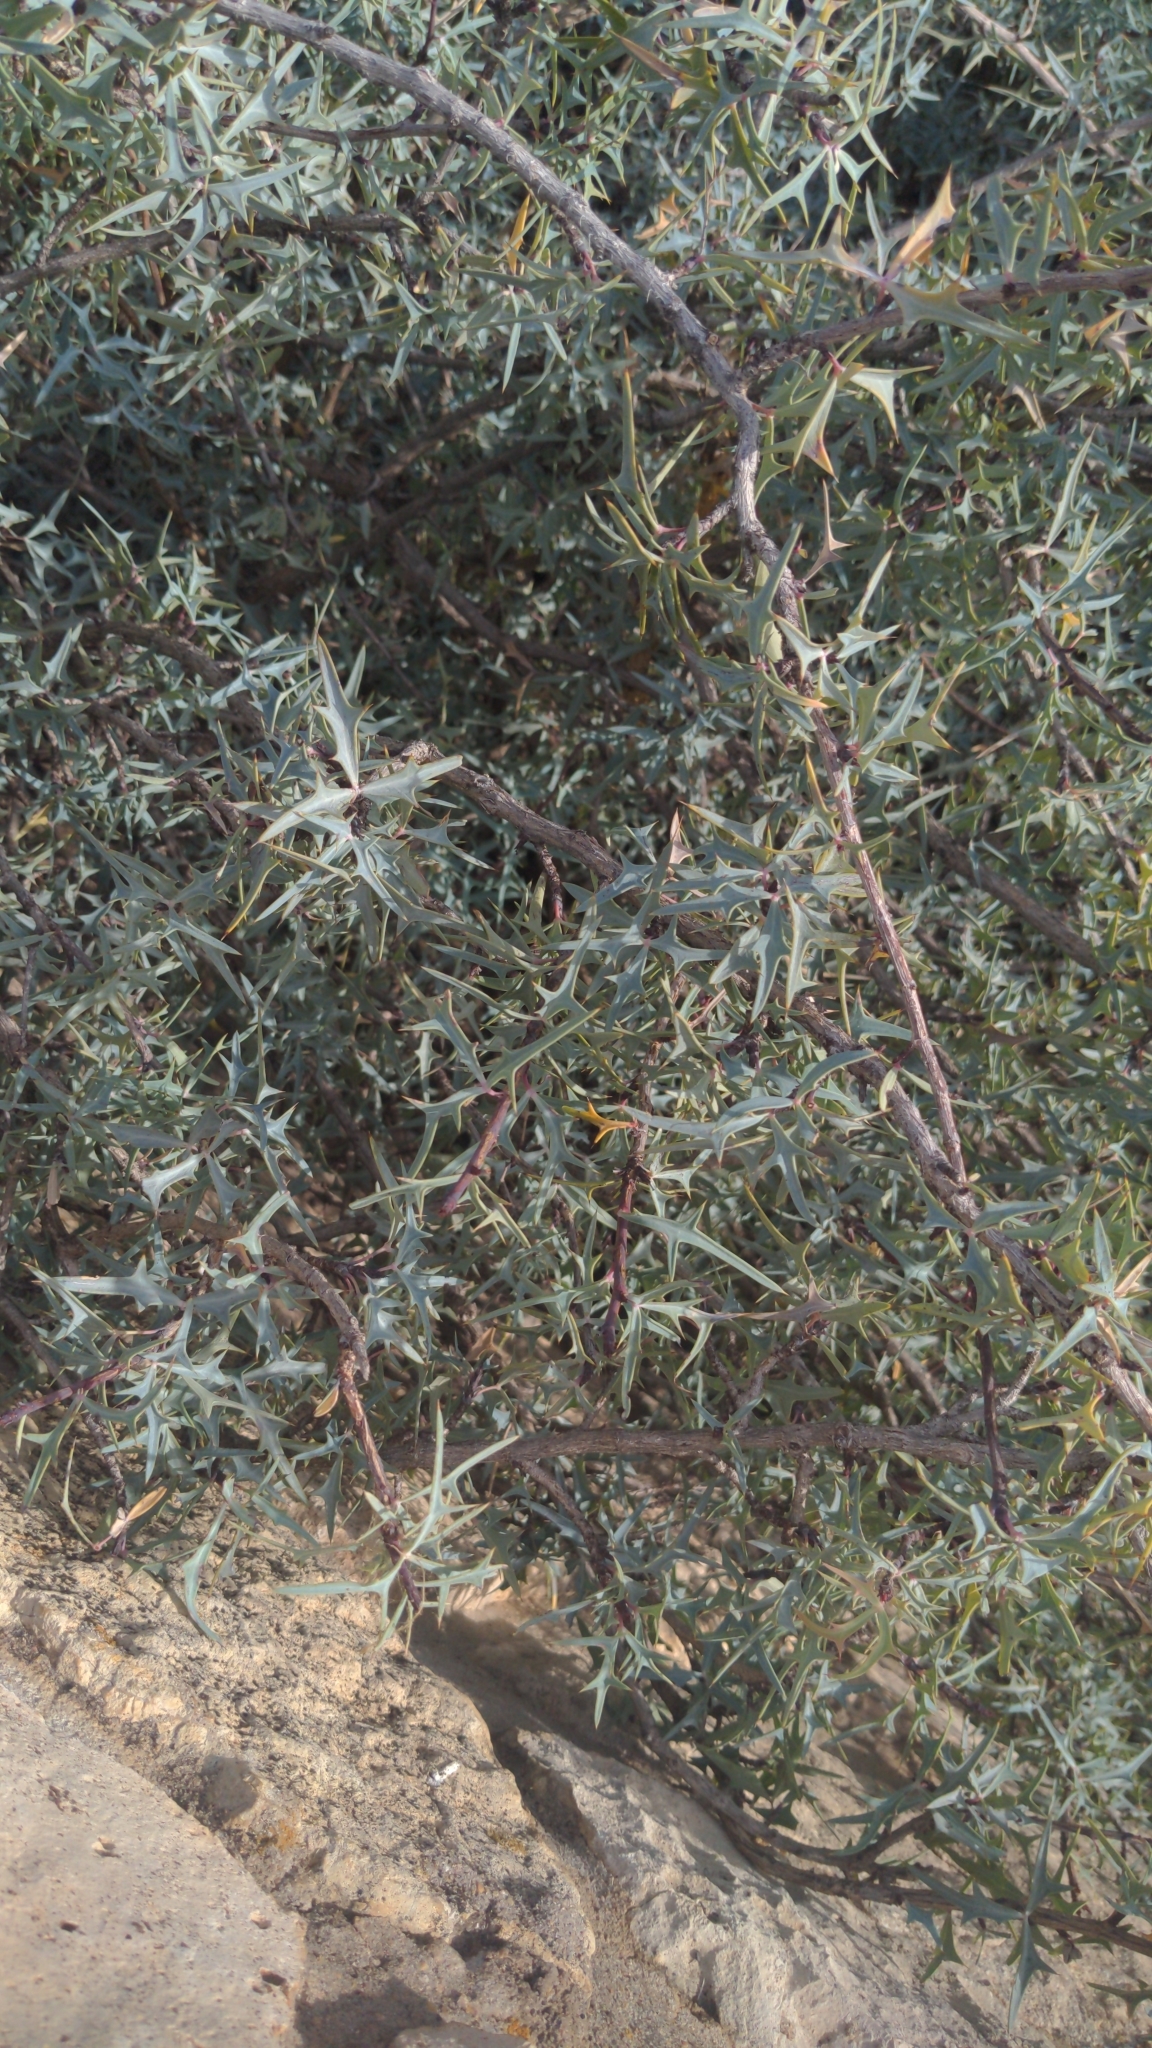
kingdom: Plantae
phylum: Tracheophyta
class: Magnoliopsida
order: Ranunculales
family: Berberidaceae
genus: Alloberberis
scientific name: Alloberberis trifoliolata
